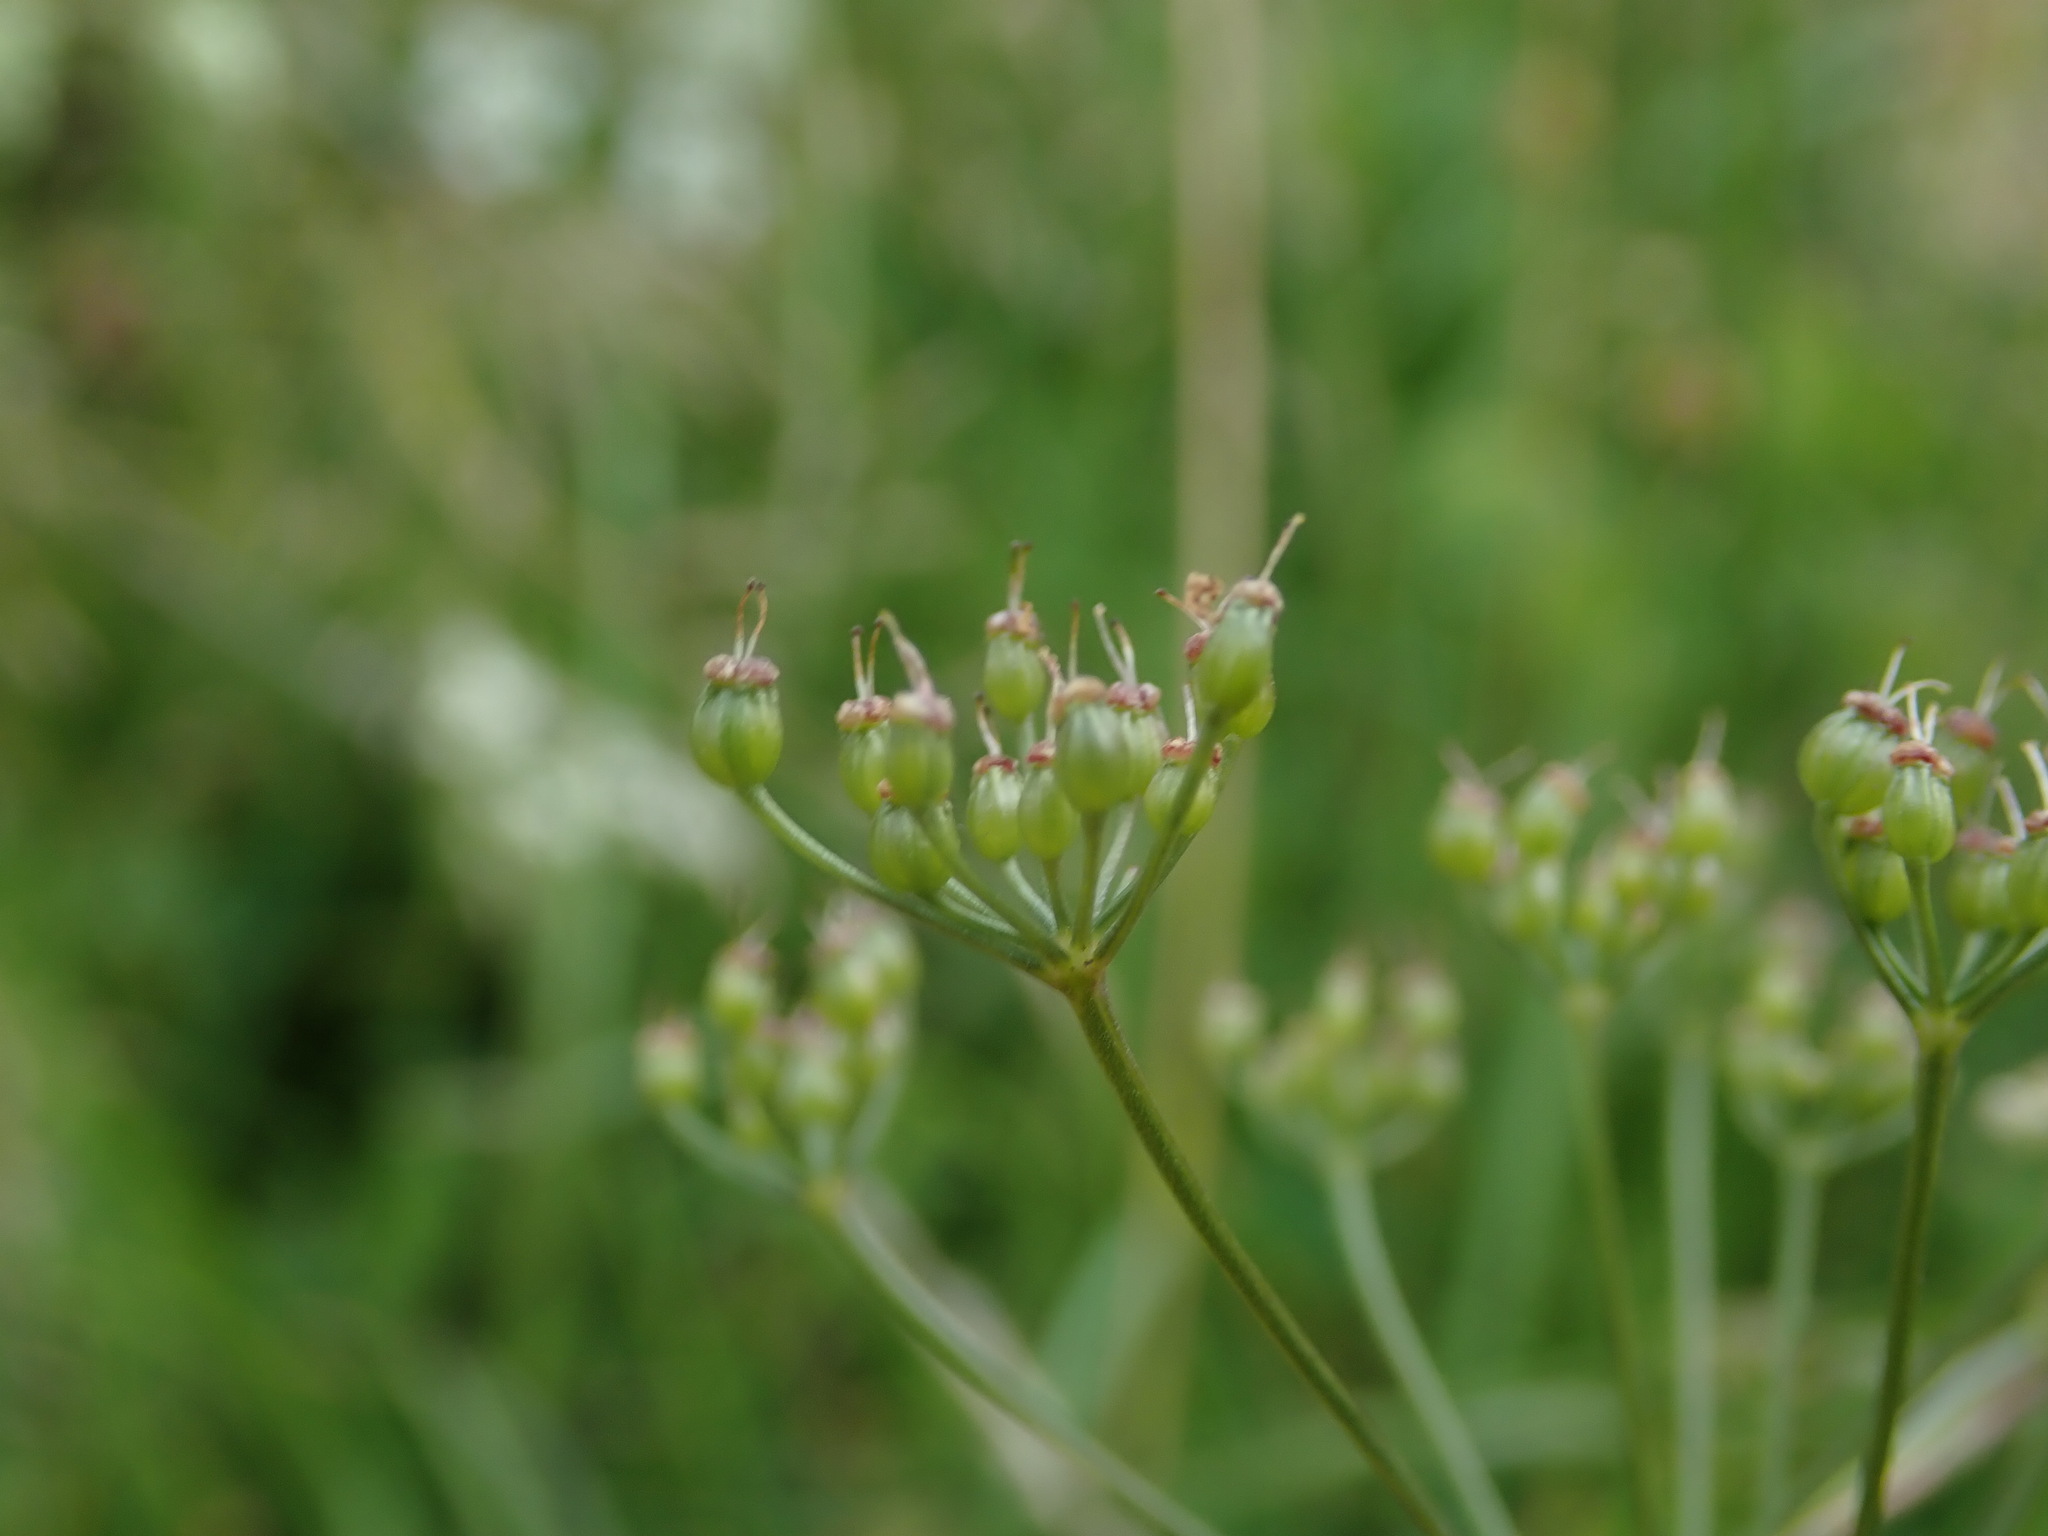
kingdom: Plantae
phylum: Tracheophyta
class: Magnoliopsida
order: Apiales
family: Apiaceae
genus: Pimpinella
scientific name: Pimpinella saxifraga
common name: Burnet-saxifrage
